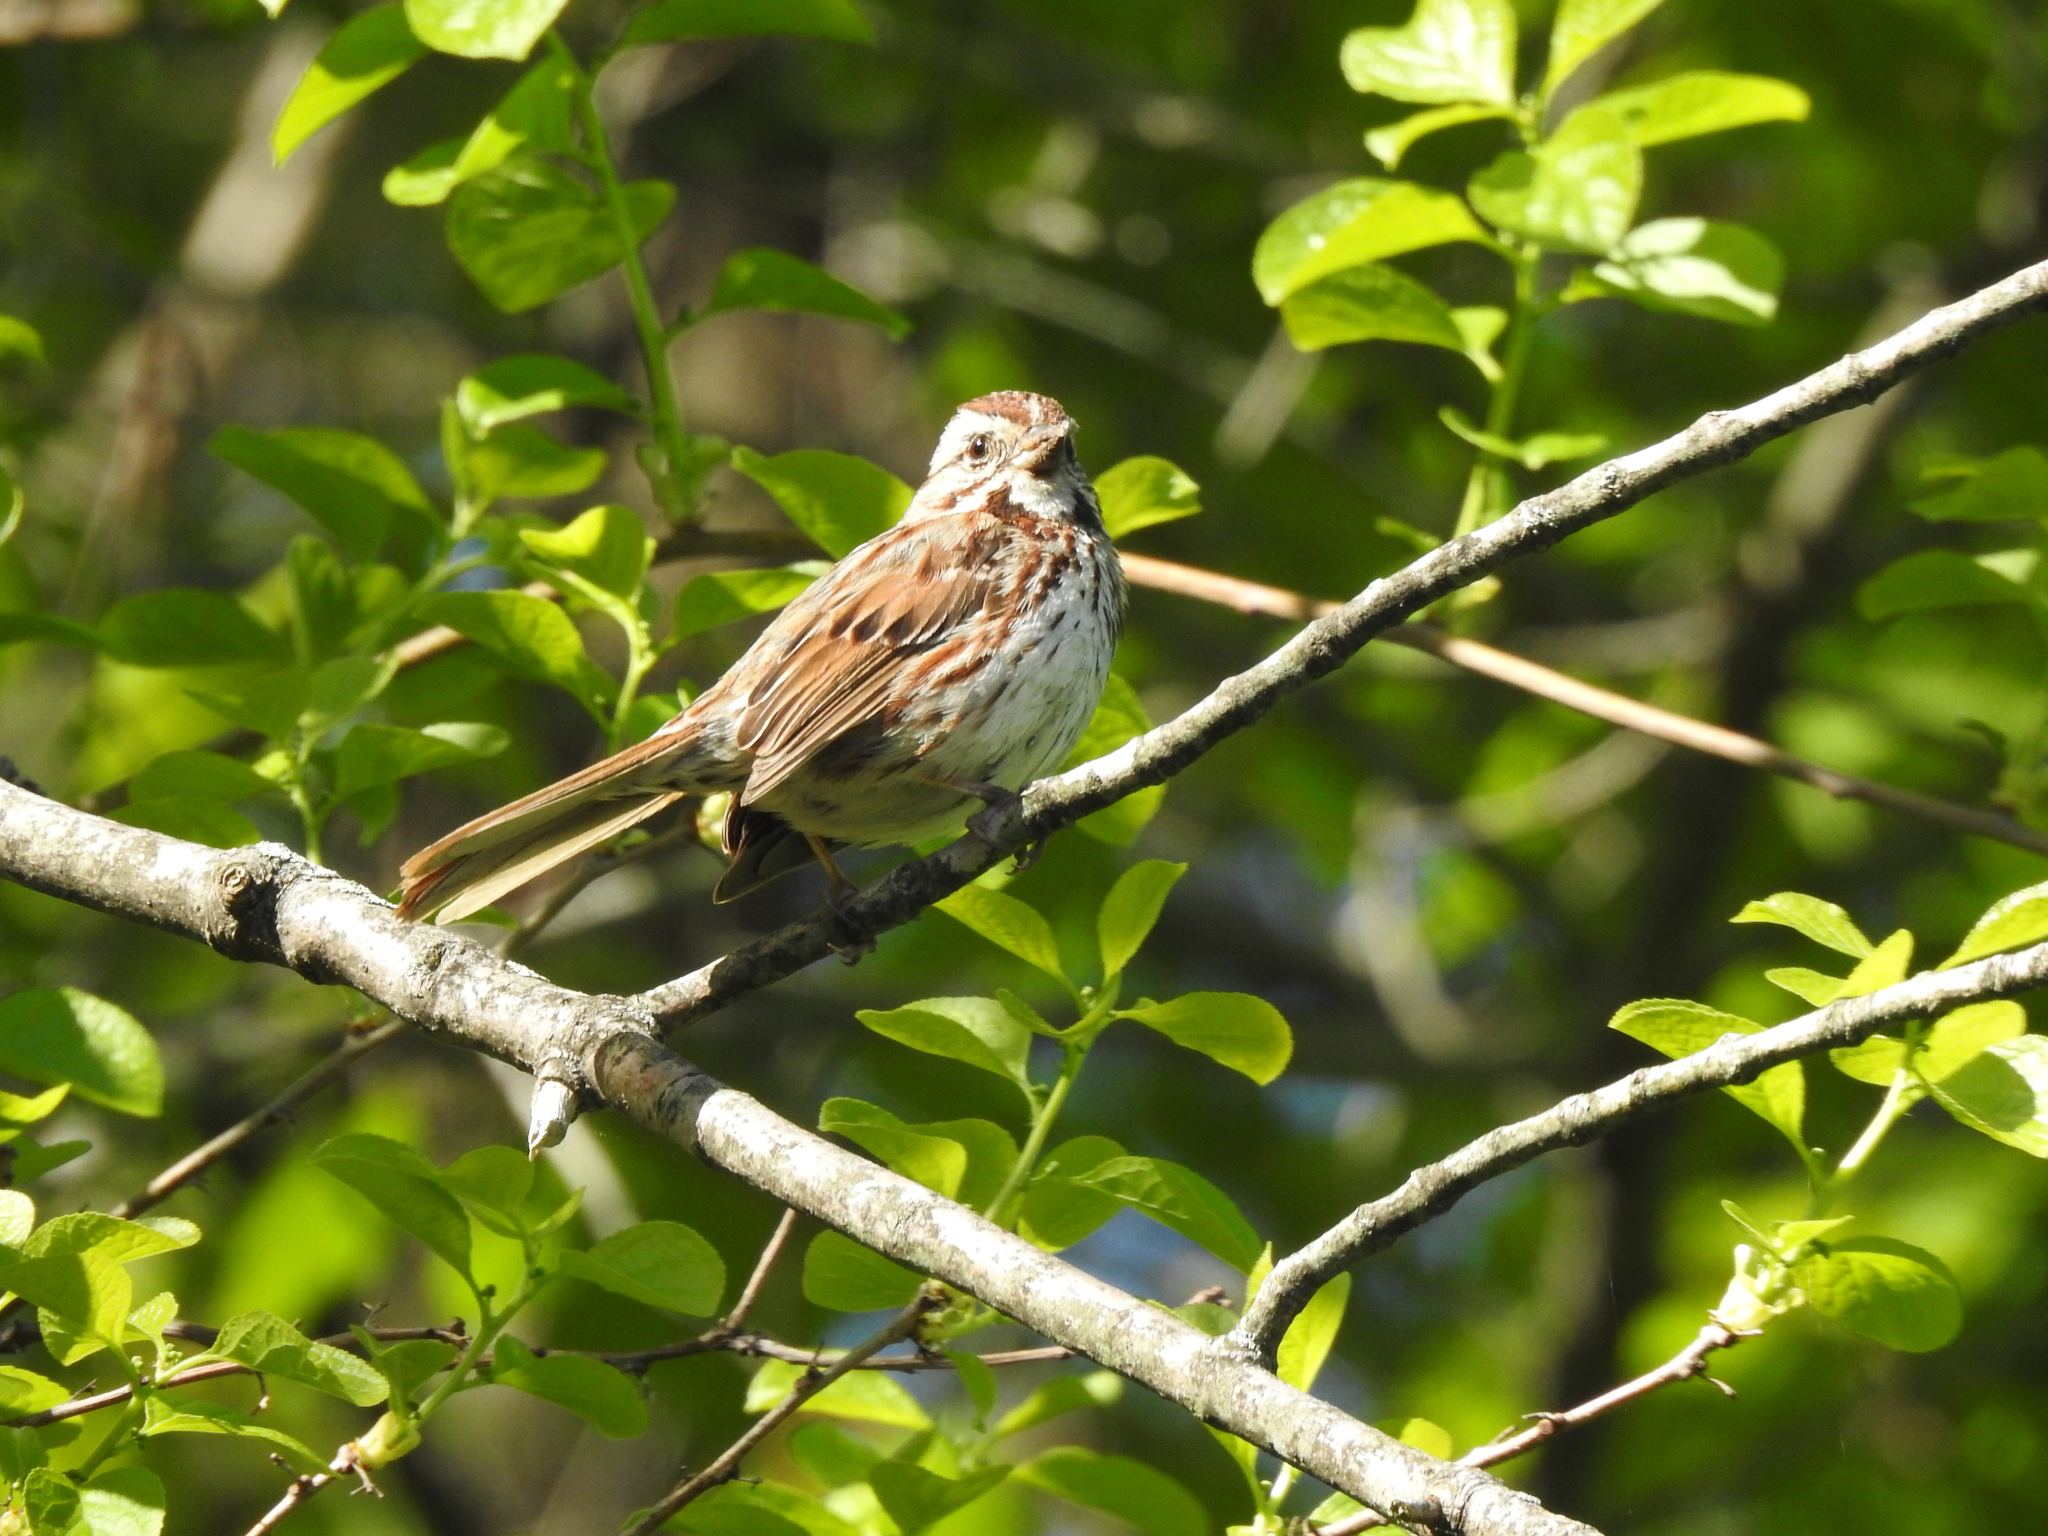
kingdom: Animalia
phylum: Chordata
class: Aves
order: Passeriformes
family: Passerellidae
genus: Melospiza
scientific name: Melospiza melodia
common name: Song sparrow
